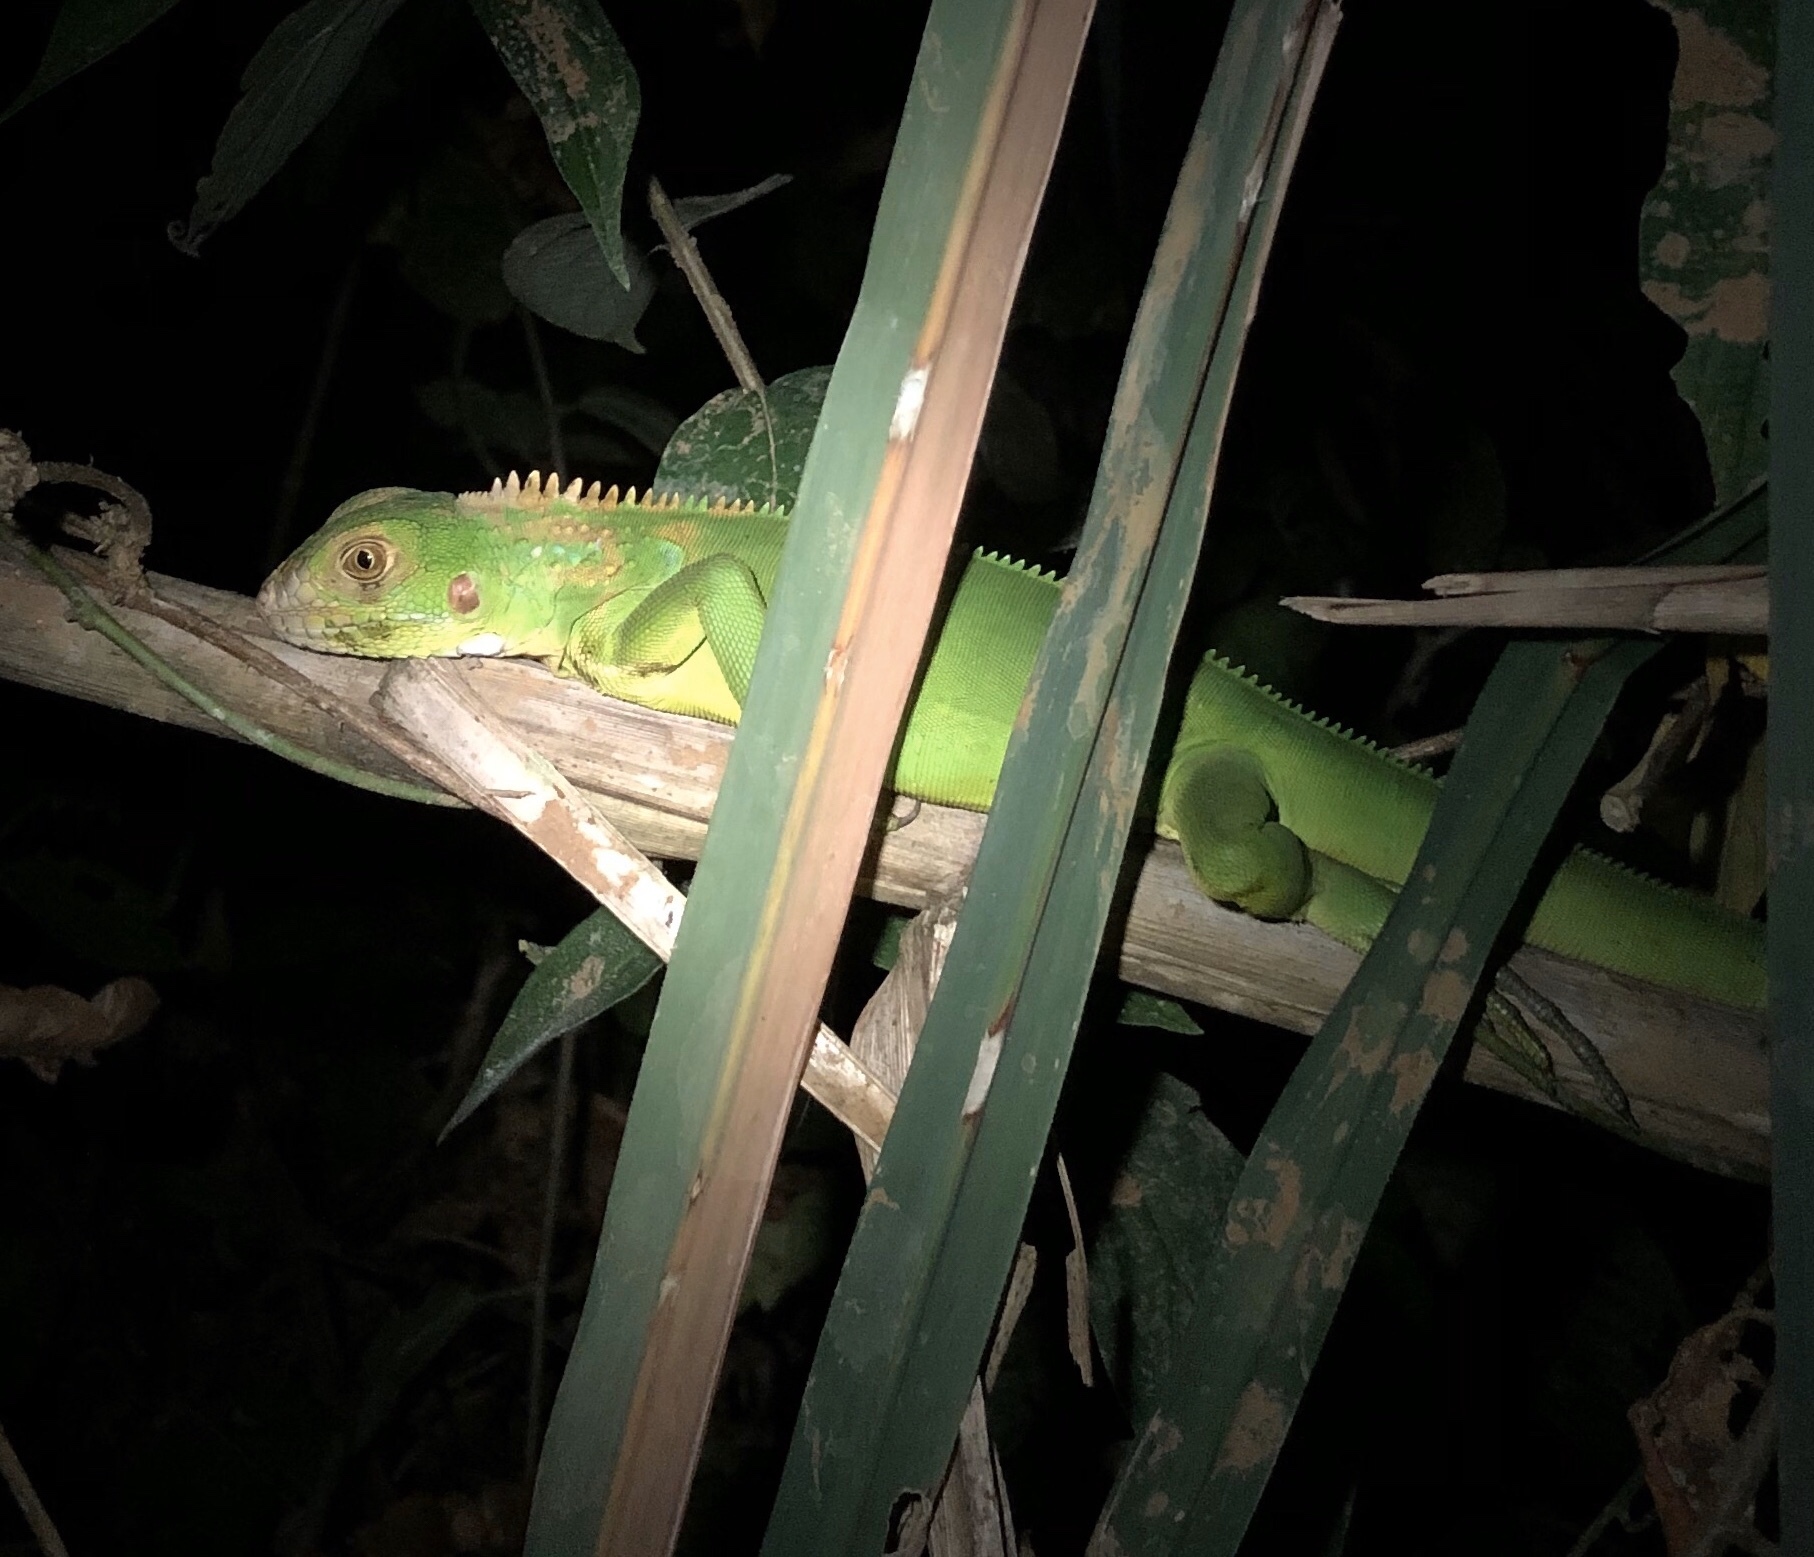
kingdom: Animalia
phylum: Chordata
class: Squamata
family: Iguanidae
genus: Iguana
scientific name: Iguana iguana
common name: Green iguana
